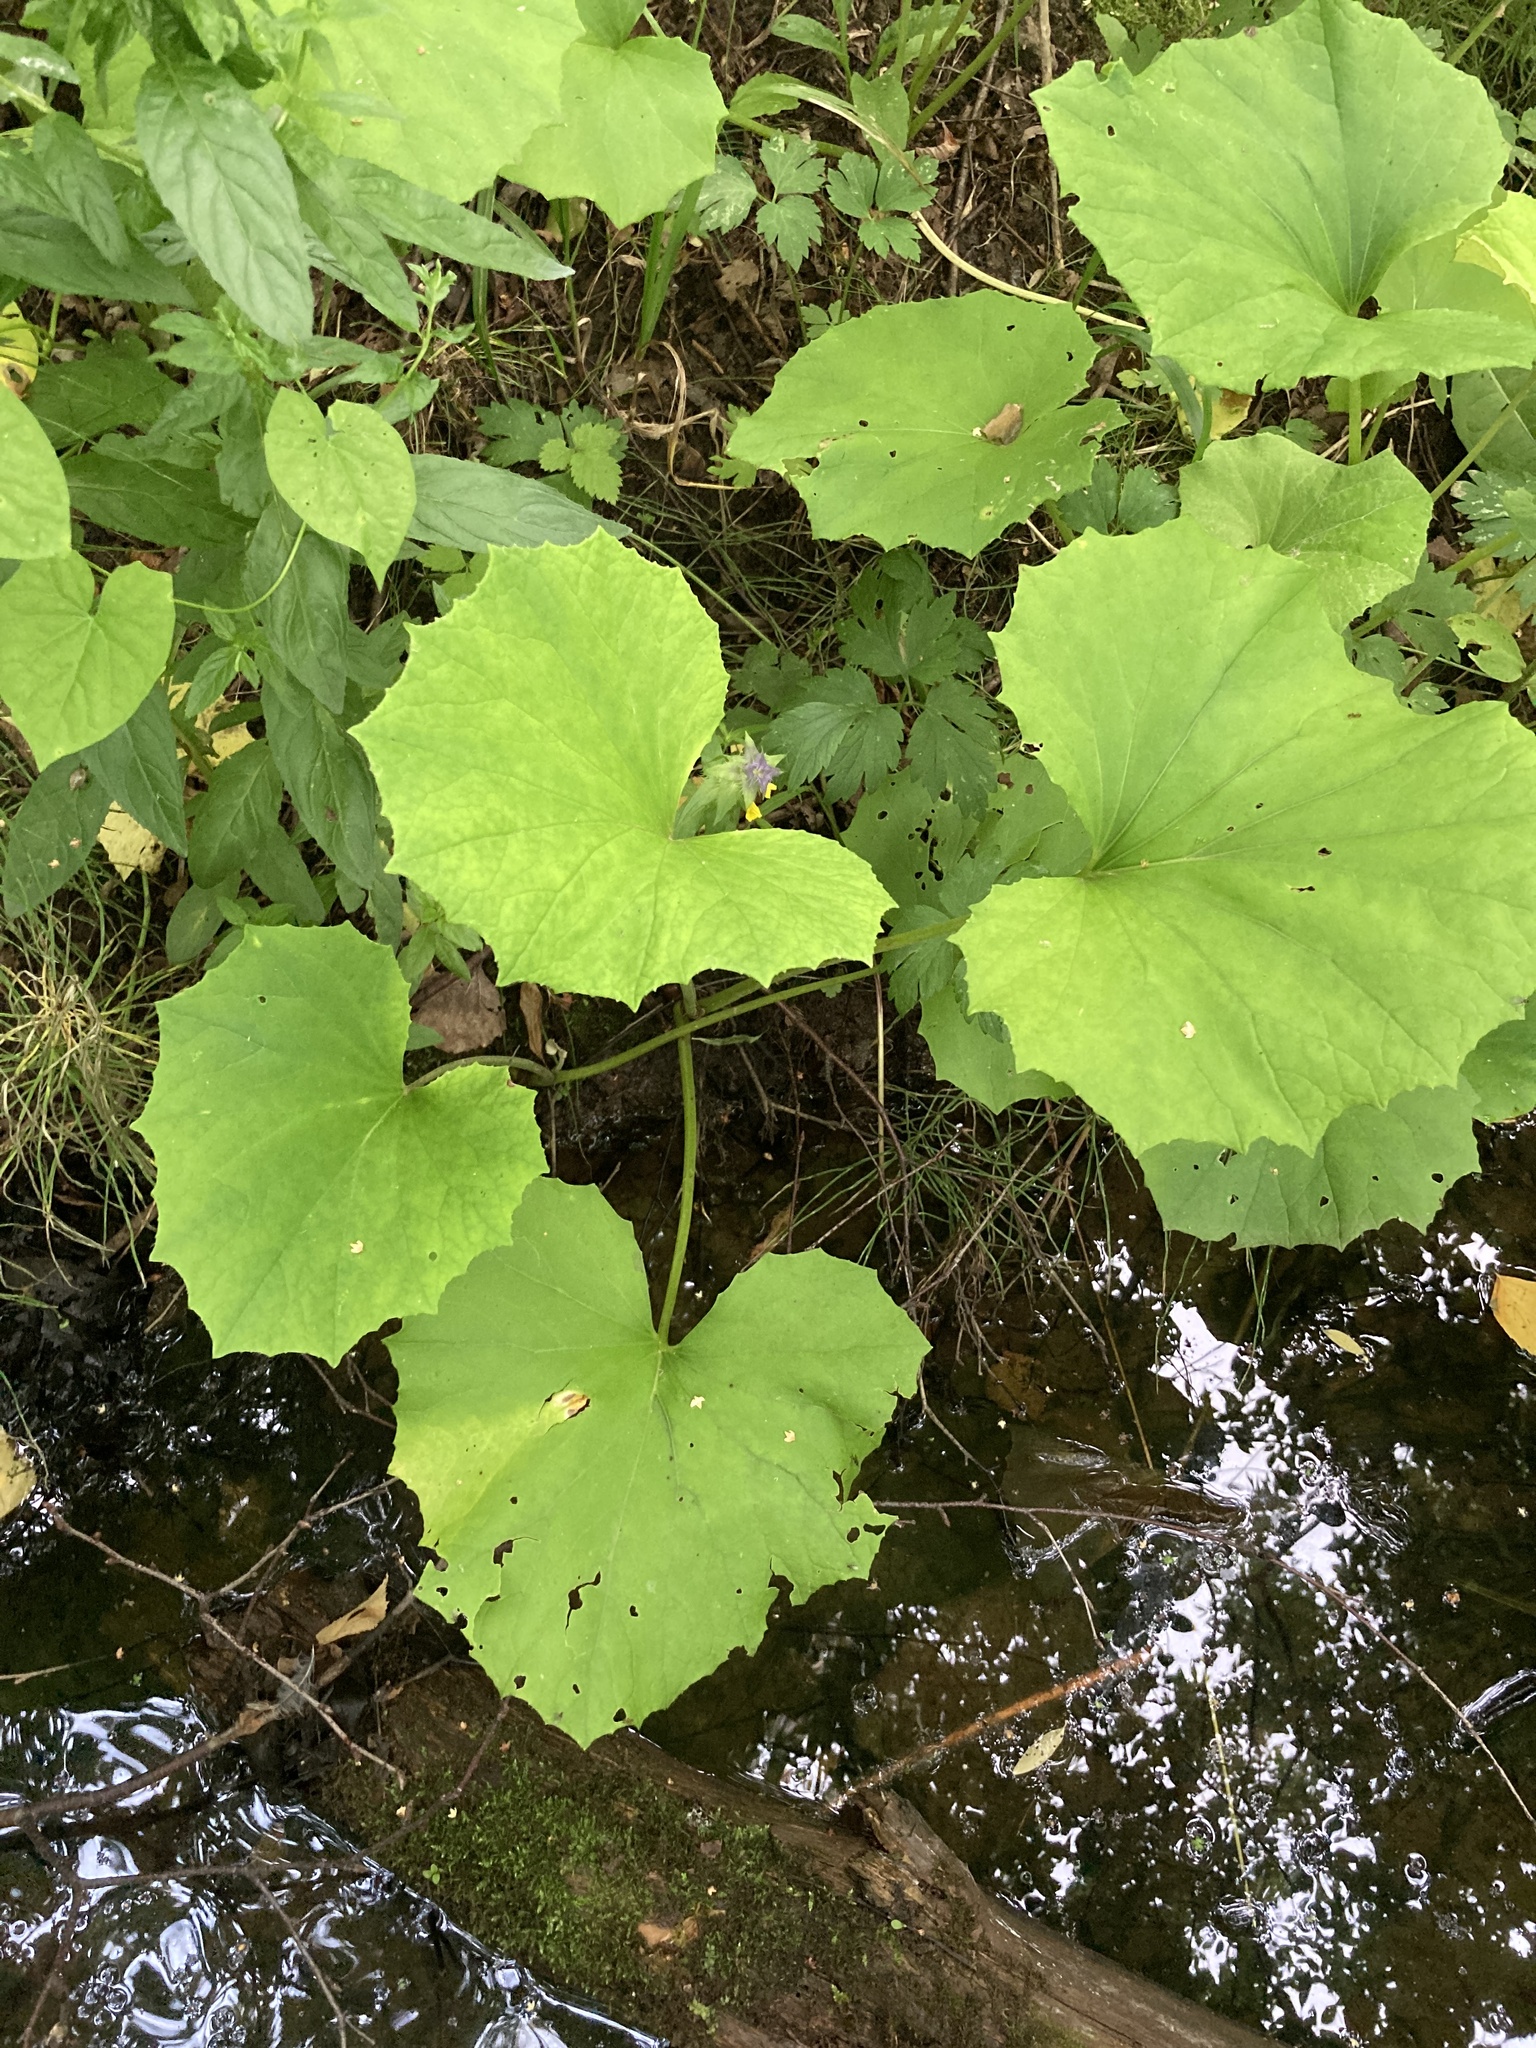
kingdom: Plantae
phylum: Tracheophyta
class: Magnoliopsida
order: Asterales
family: Asteraceae
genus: Tussilago
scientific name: Tussilago farfara
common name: Coltsfoot
